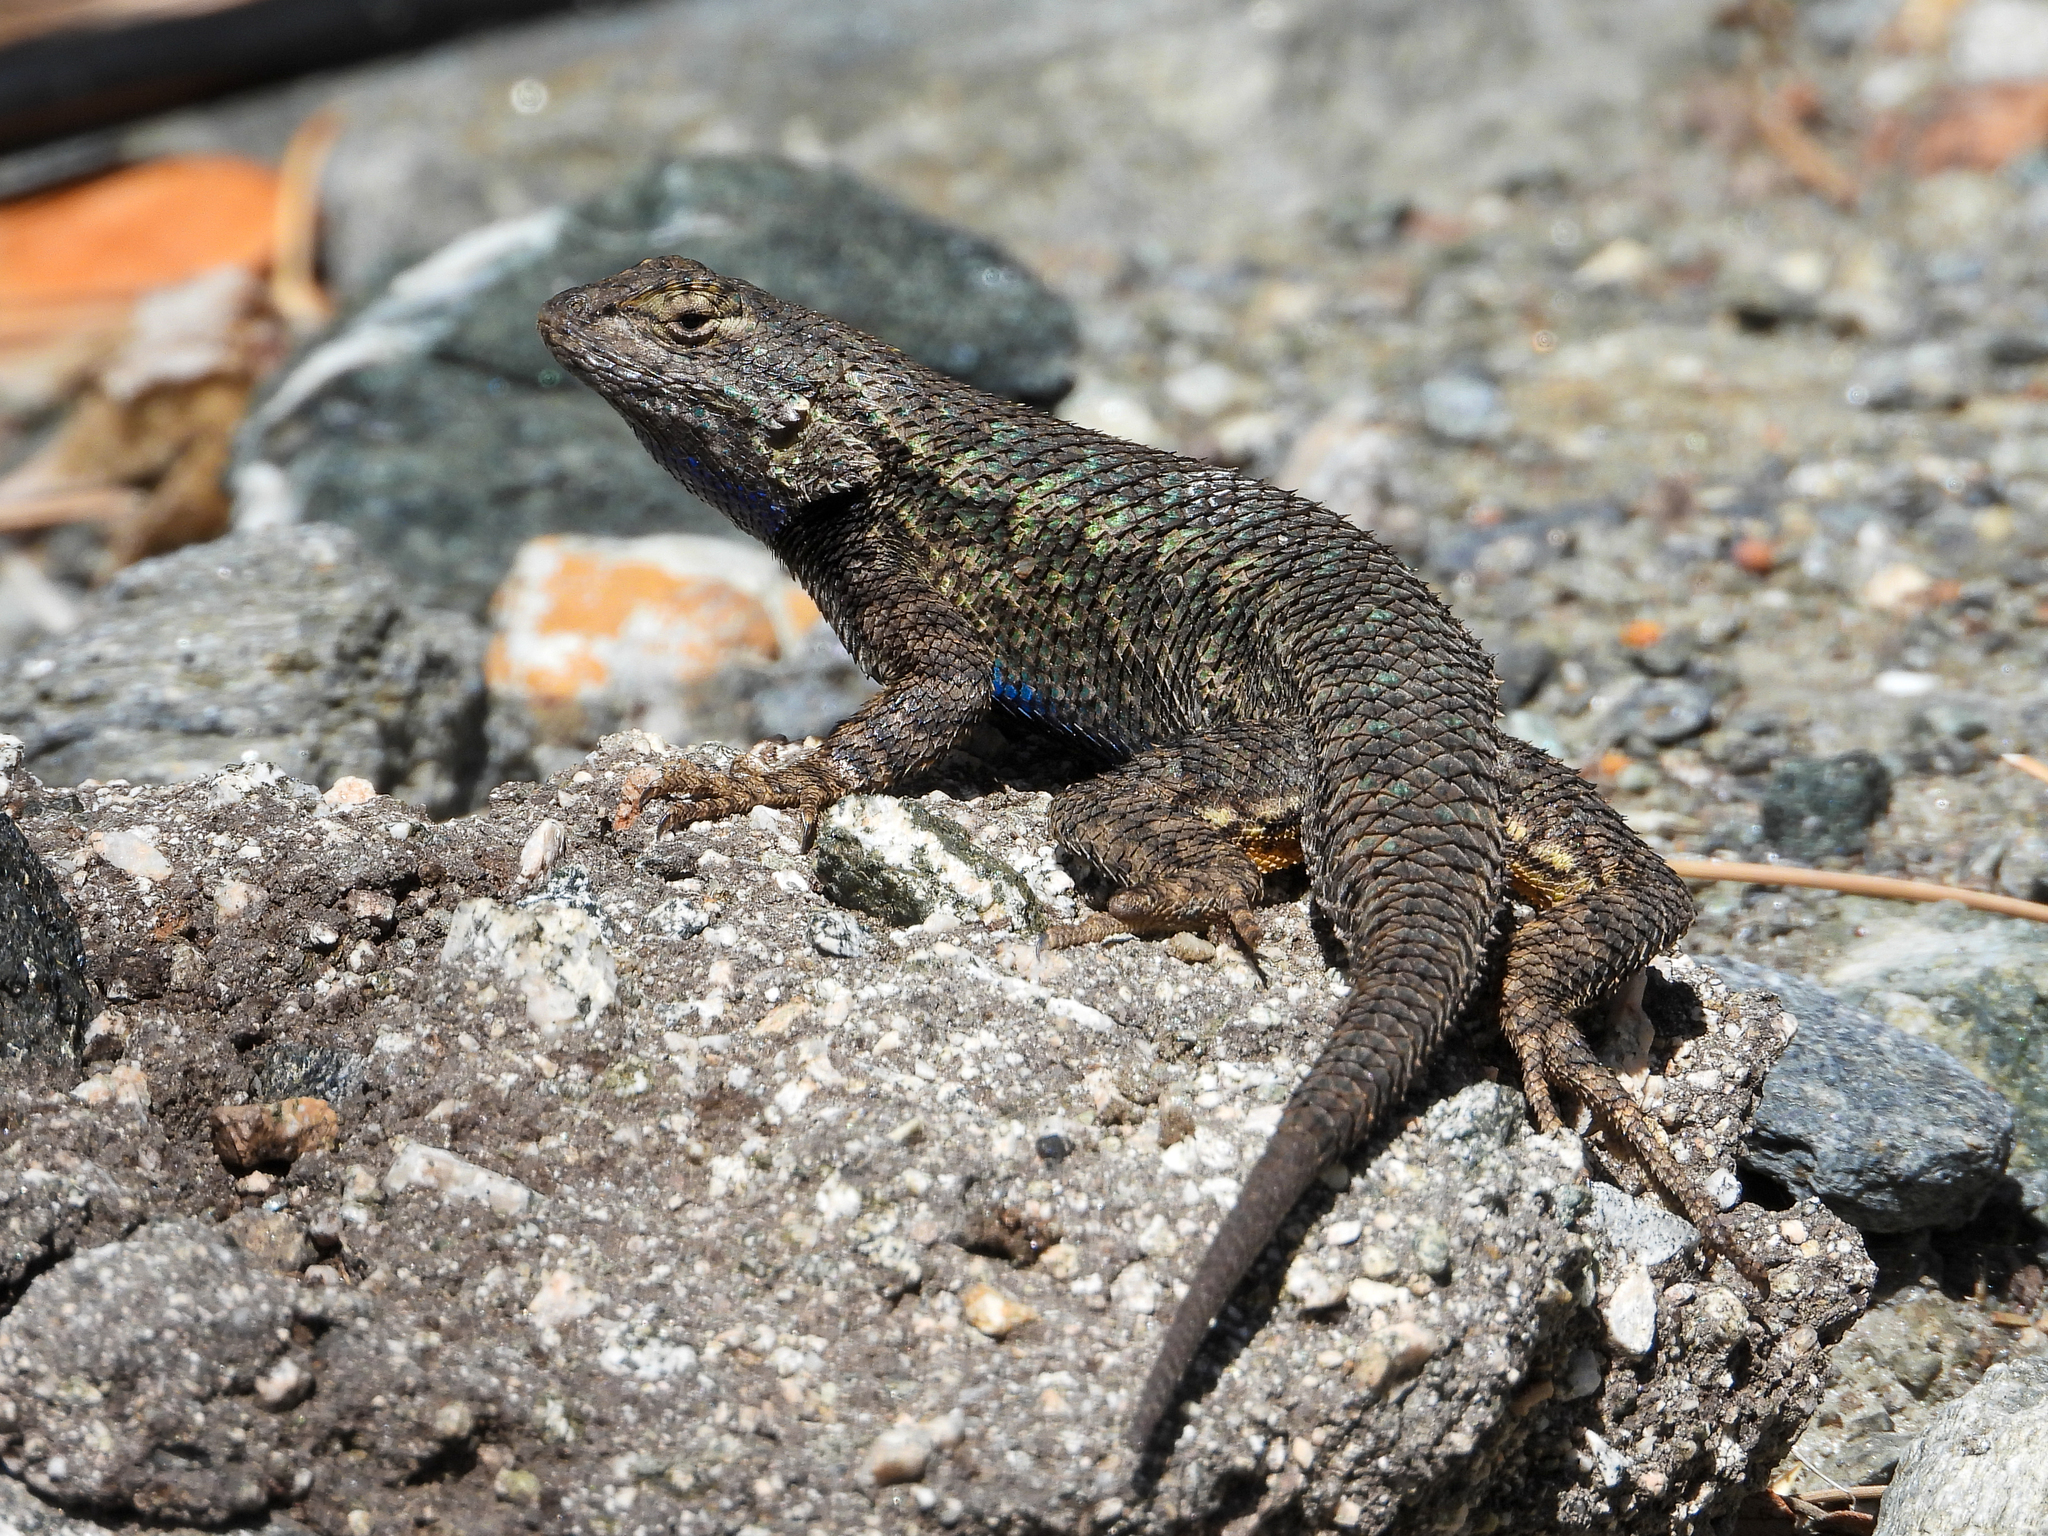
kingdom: Animalia
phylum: Chordata
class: Squamata
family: Phrynosomatidae
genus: Sceloporus
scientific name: Sceloporus occidentalis
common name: Western fence lizard
